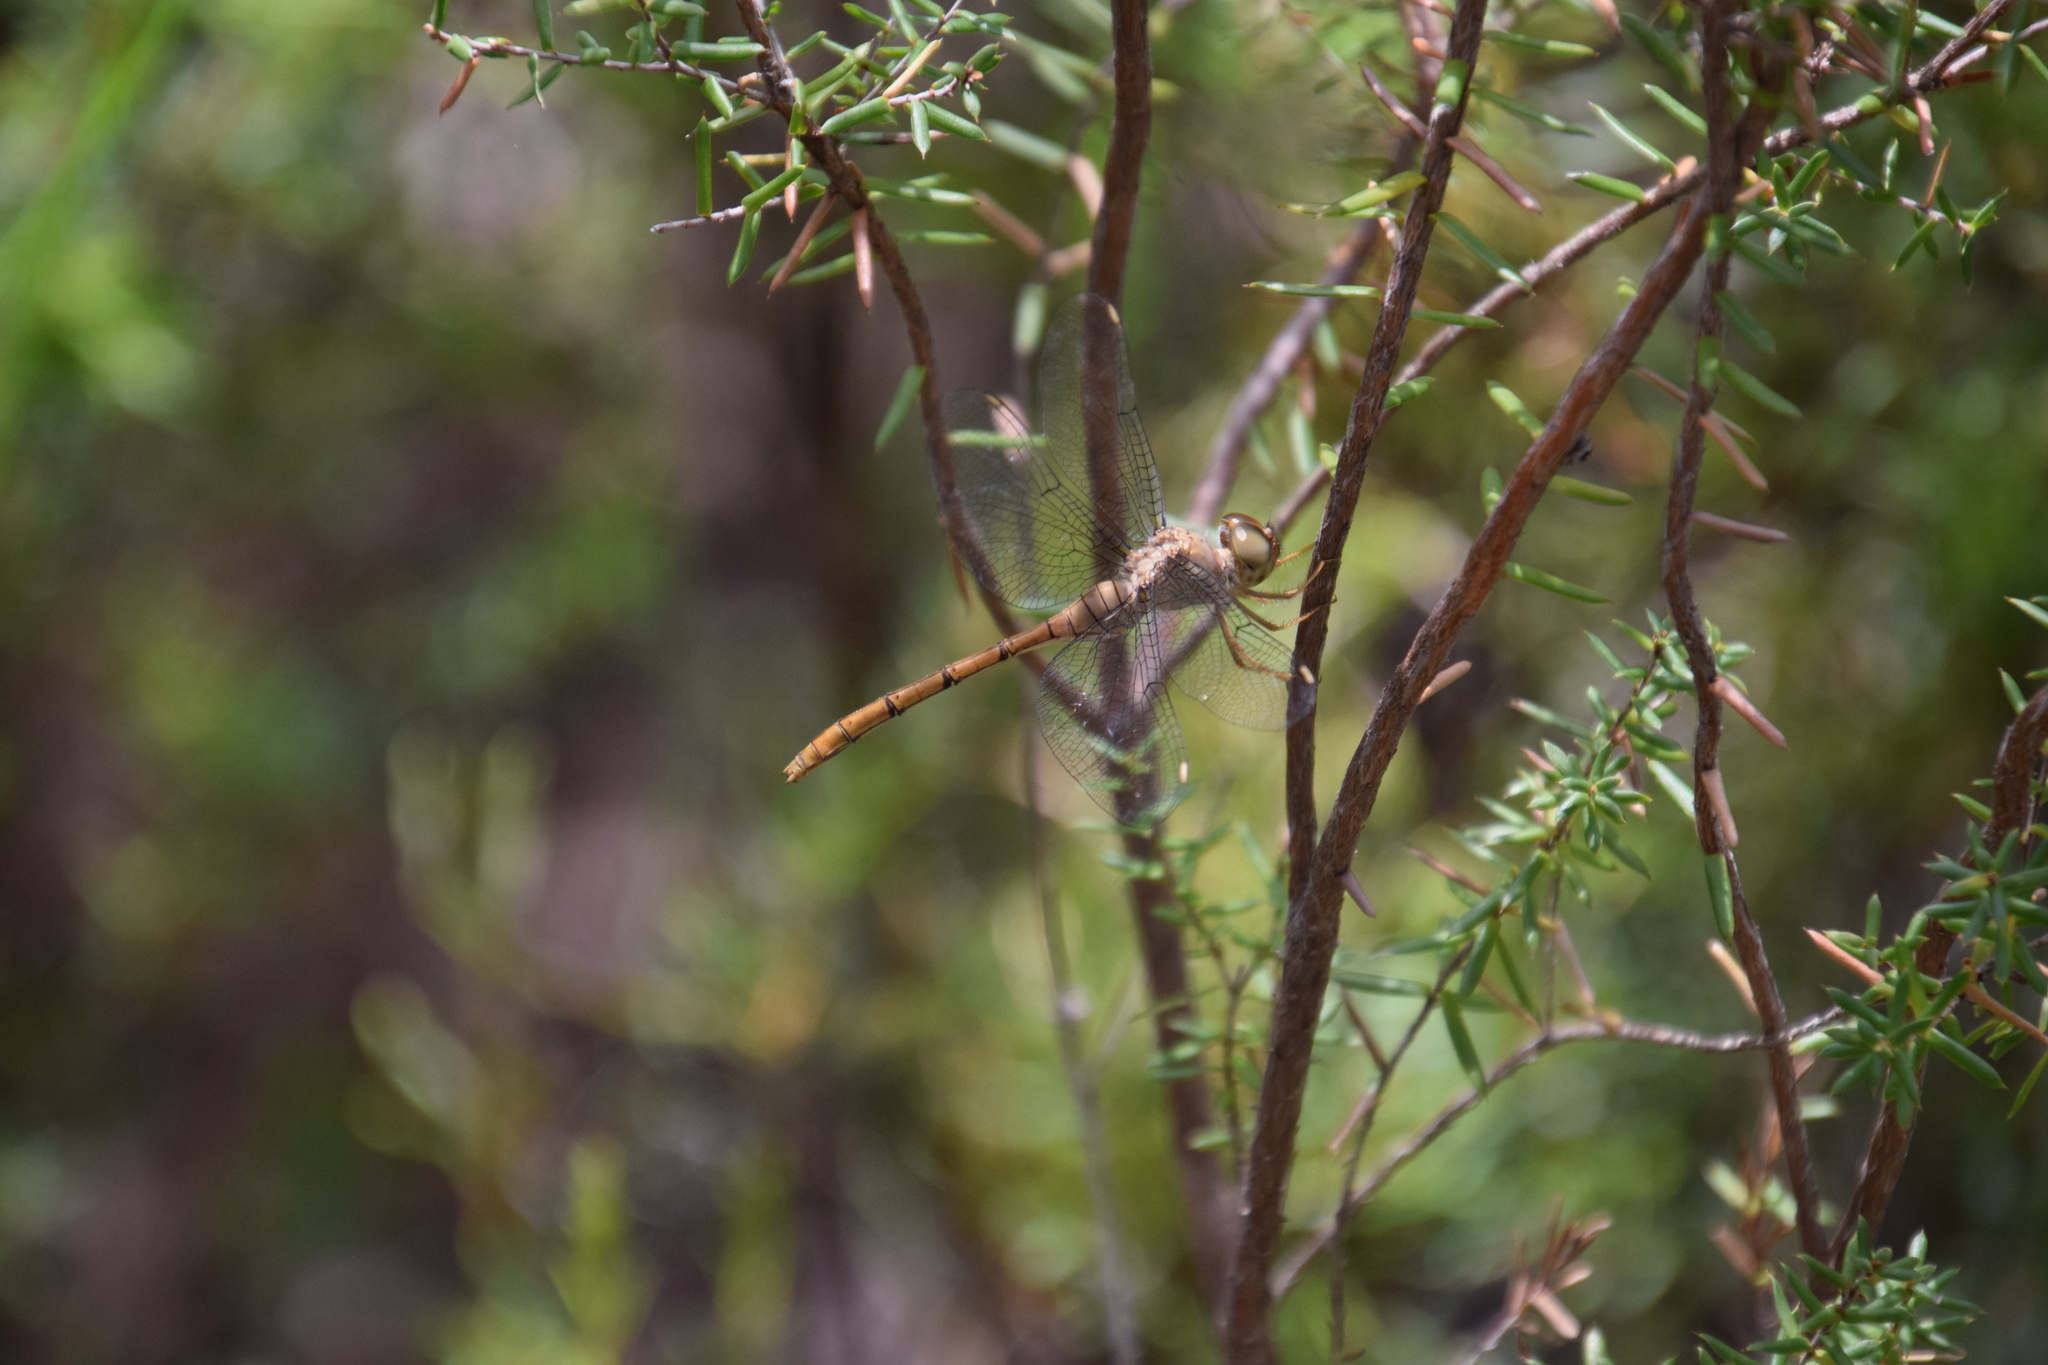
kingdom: Animalia
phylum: Arthropoda
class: Insecta
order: Odonata
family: Libellulidae
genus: Zyxomma
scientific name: Zyxomma elgneri
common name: Short-tailed duskdarter
